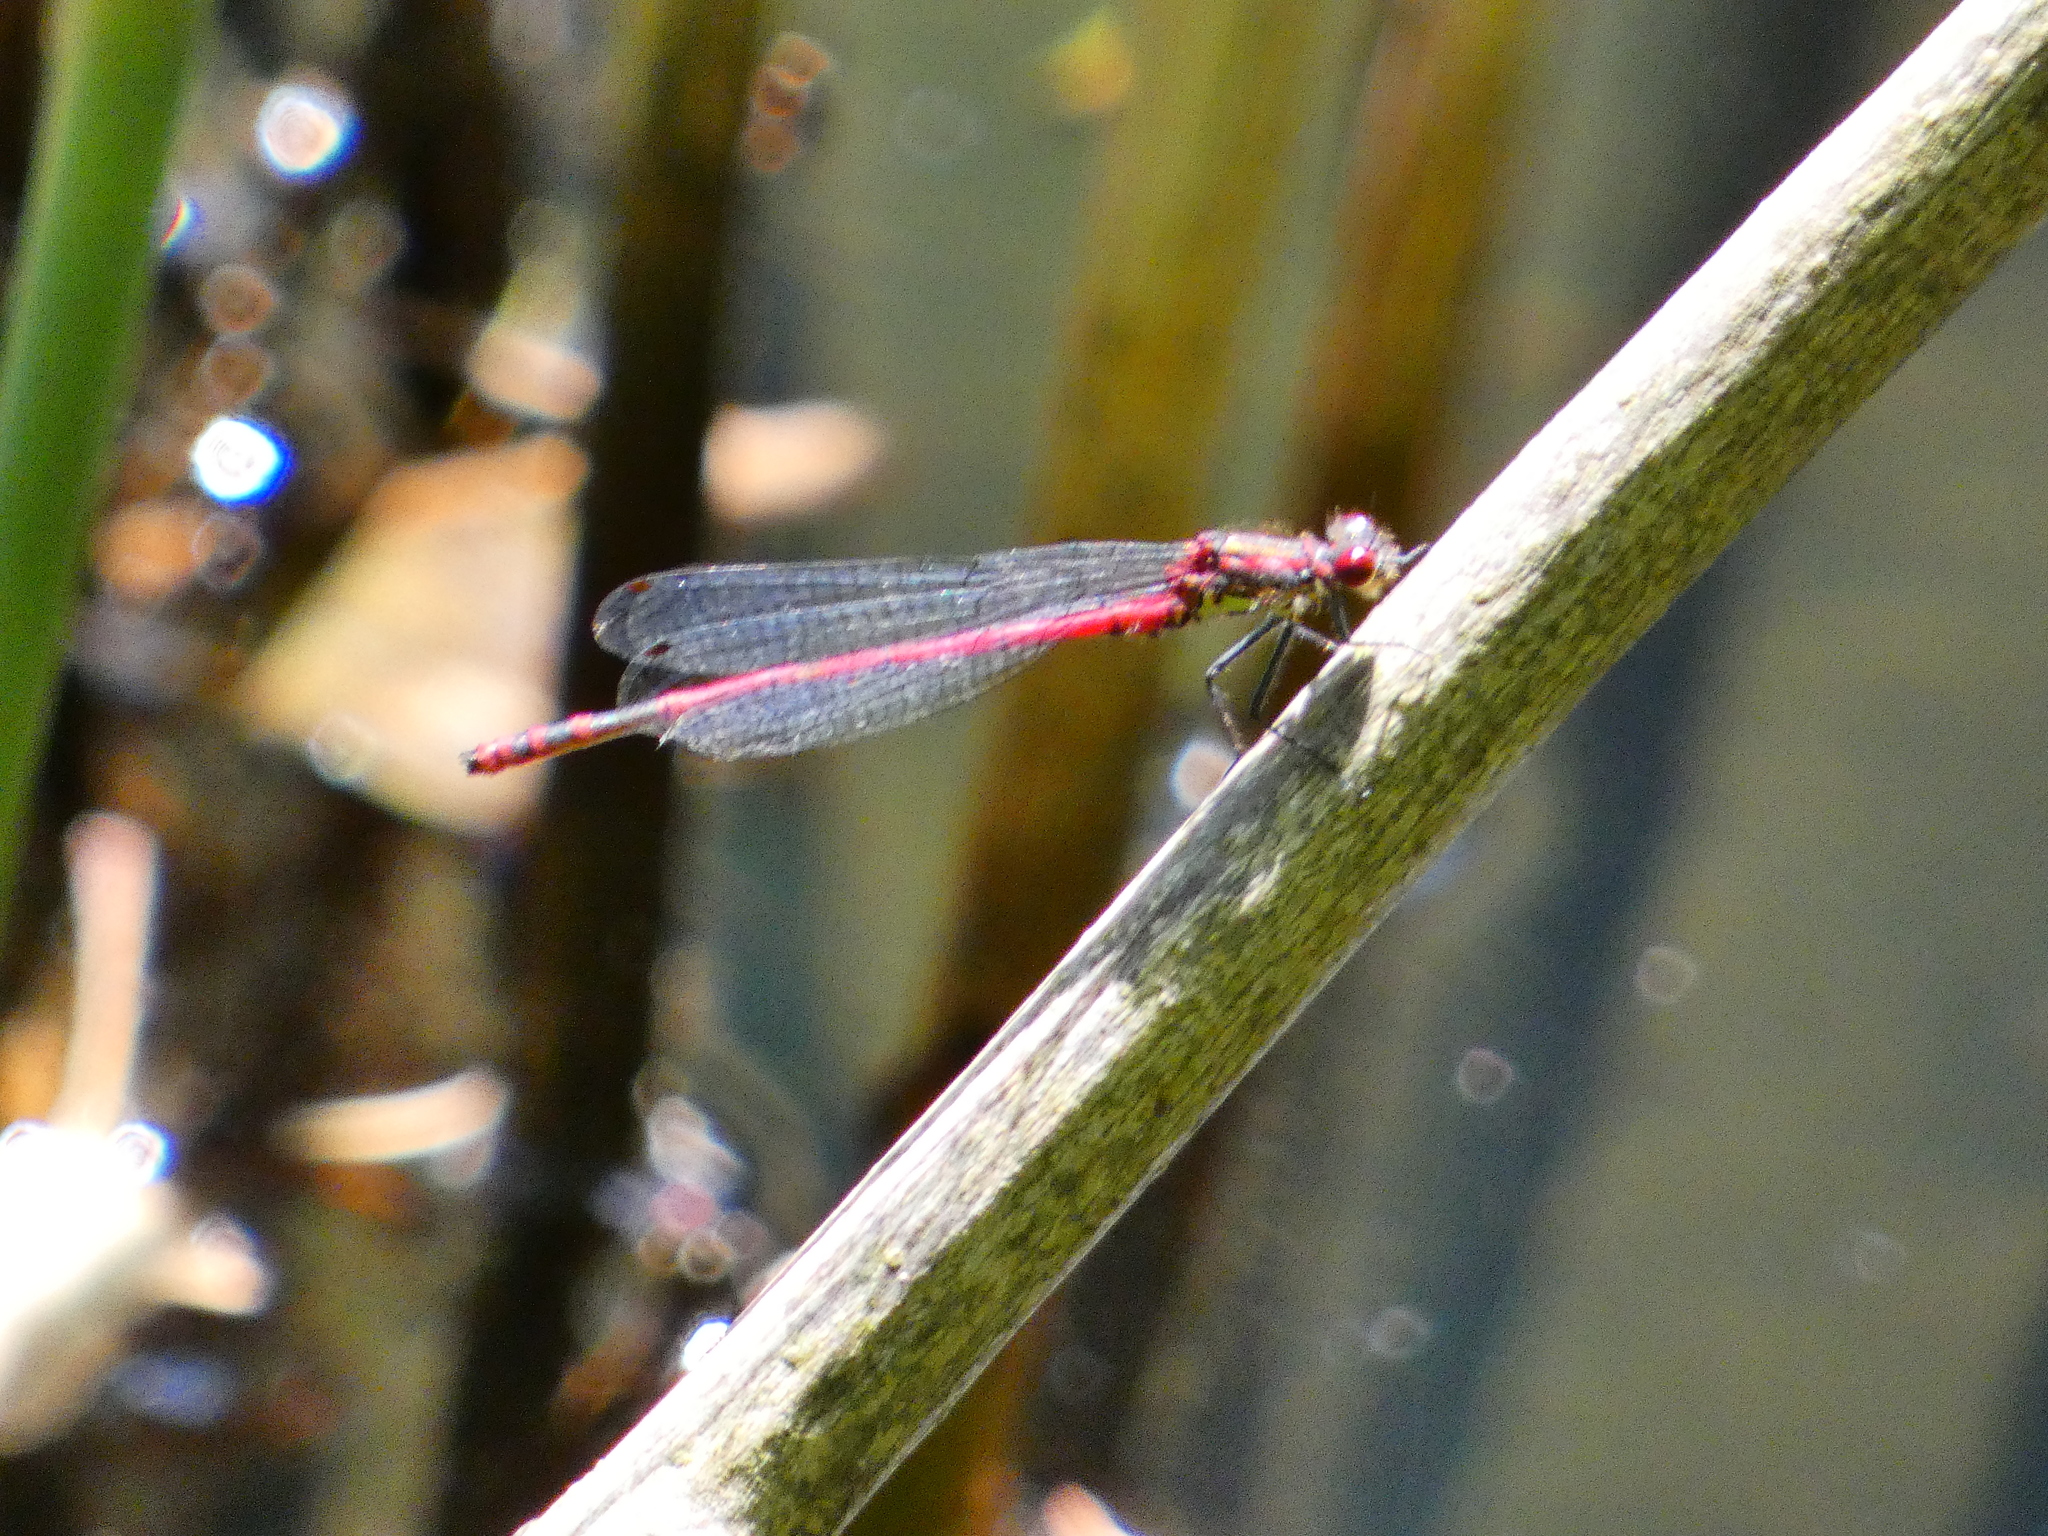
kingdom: Animalia
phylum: Arthropoda
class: Insecta
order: Odonata
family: Coenagrionidae
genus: Pyrrhosoma
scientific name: Pyrrhosoma nymphula
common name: Large red damsel
